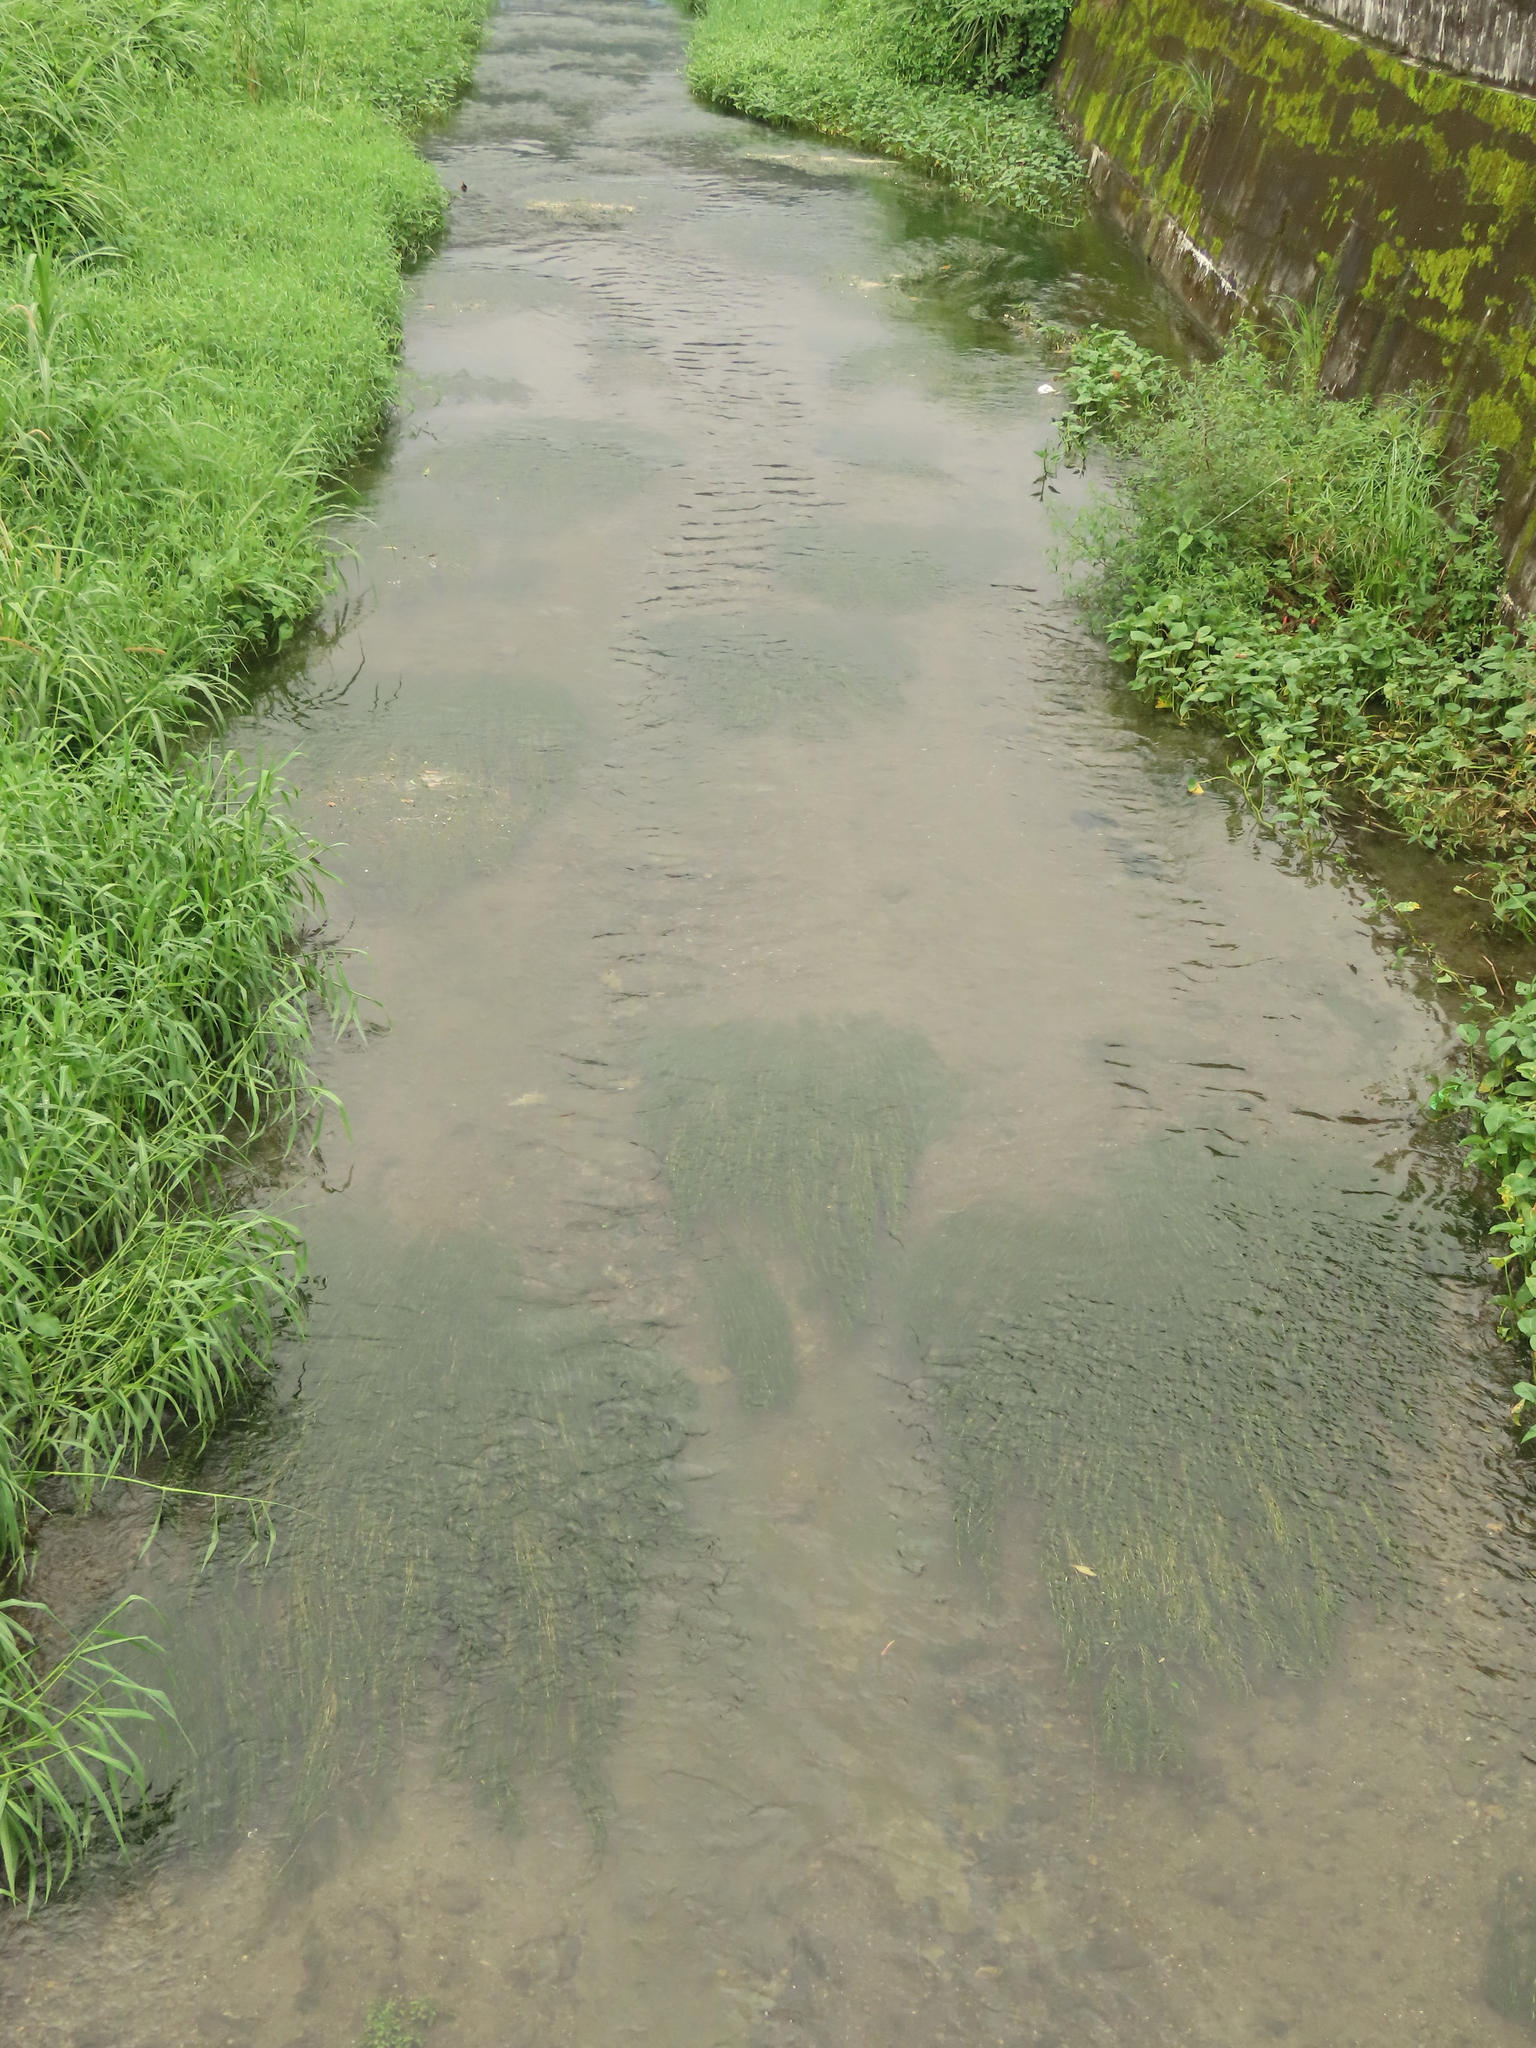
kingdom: Plantae
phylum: Tracheophyta
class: Liliopsida
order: Alismatales
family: Potamogetonaceae
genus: Potamogeton
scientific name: Potamogeton crispus
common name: Curled pondweed
